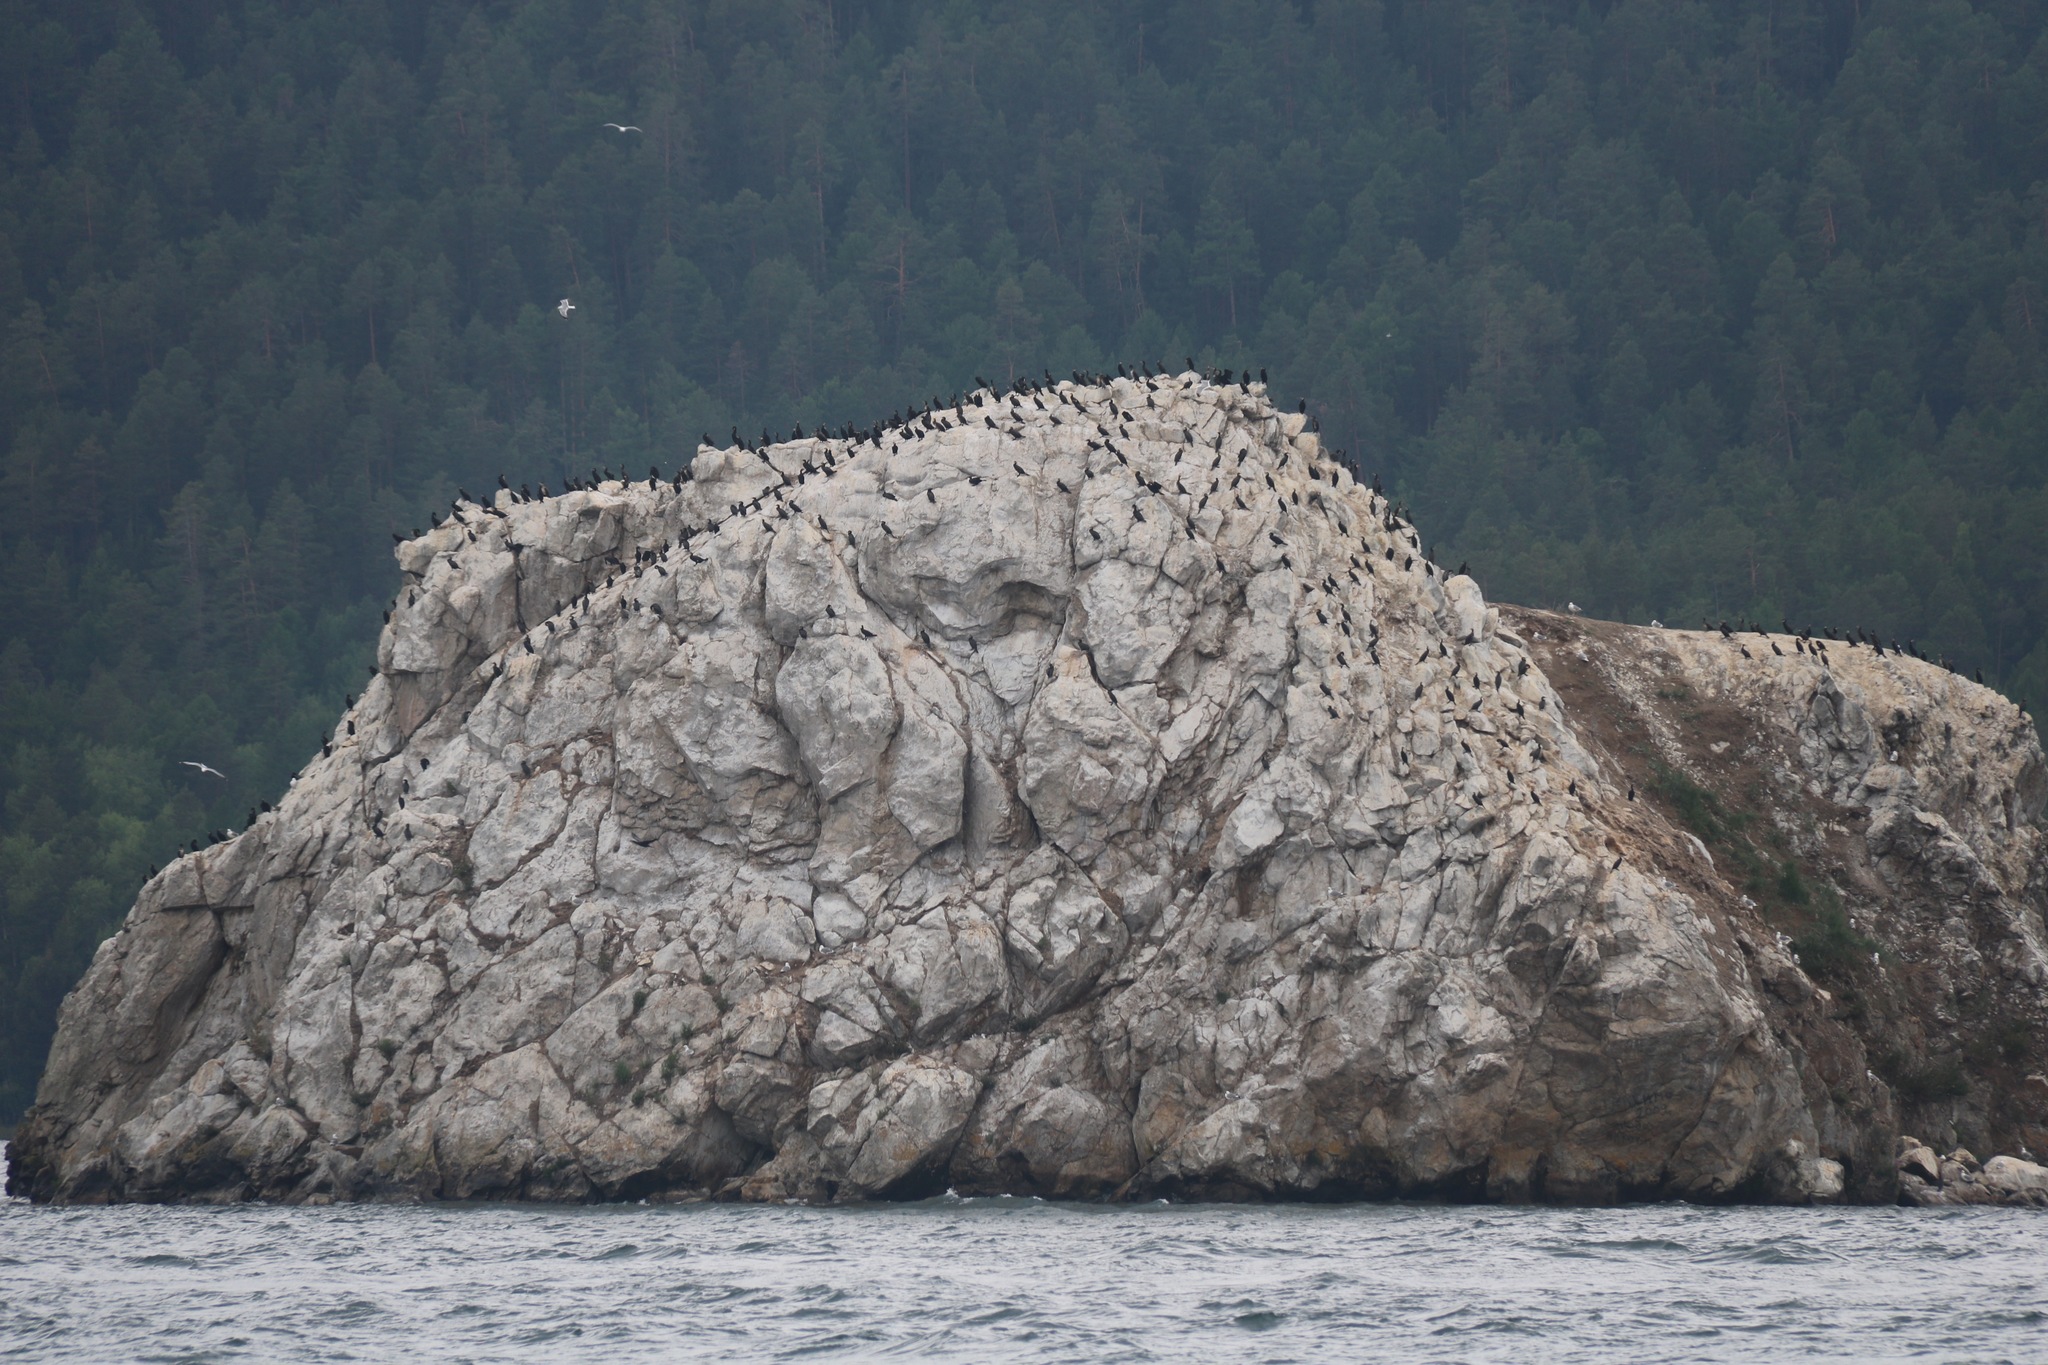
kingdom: Animalia
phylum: Chordata
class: Aves
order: Suliformes
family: Phalacrocoracidae
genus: Phalacrocorax
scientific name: Phalacrocorax carbo
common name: Great cormorant
